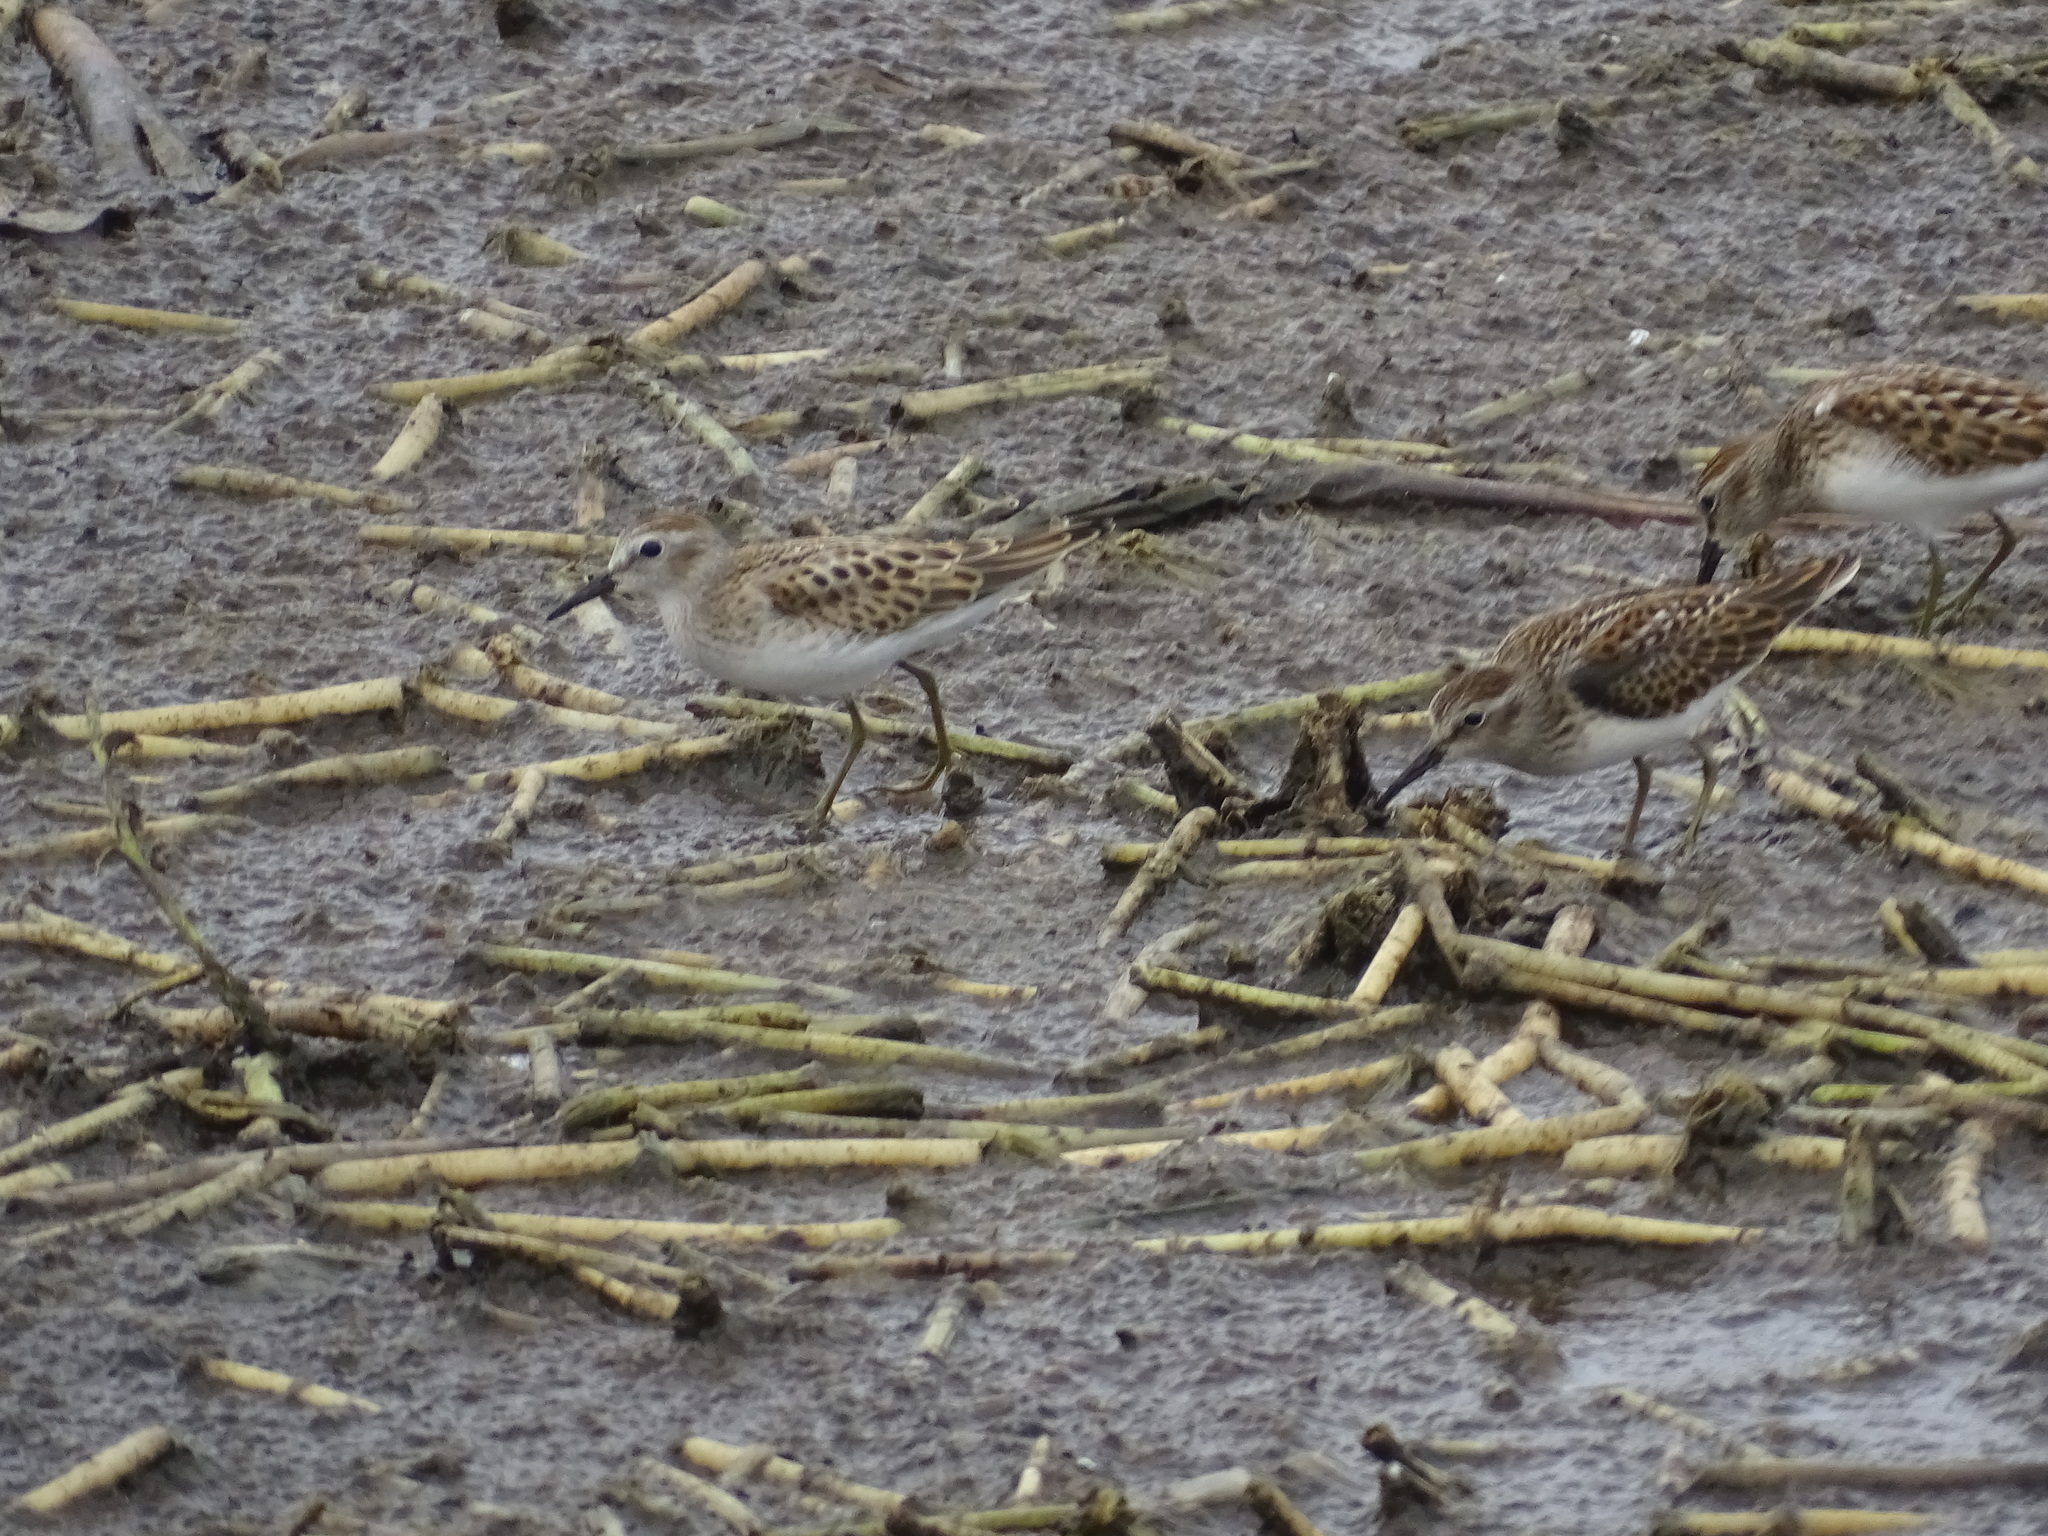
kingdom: Animalia
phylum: Chordata
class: Aves
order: Charadriiformes
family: Scolopacidae
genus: Calidris
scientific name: Calidris minutilla
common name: Least sandpiper
